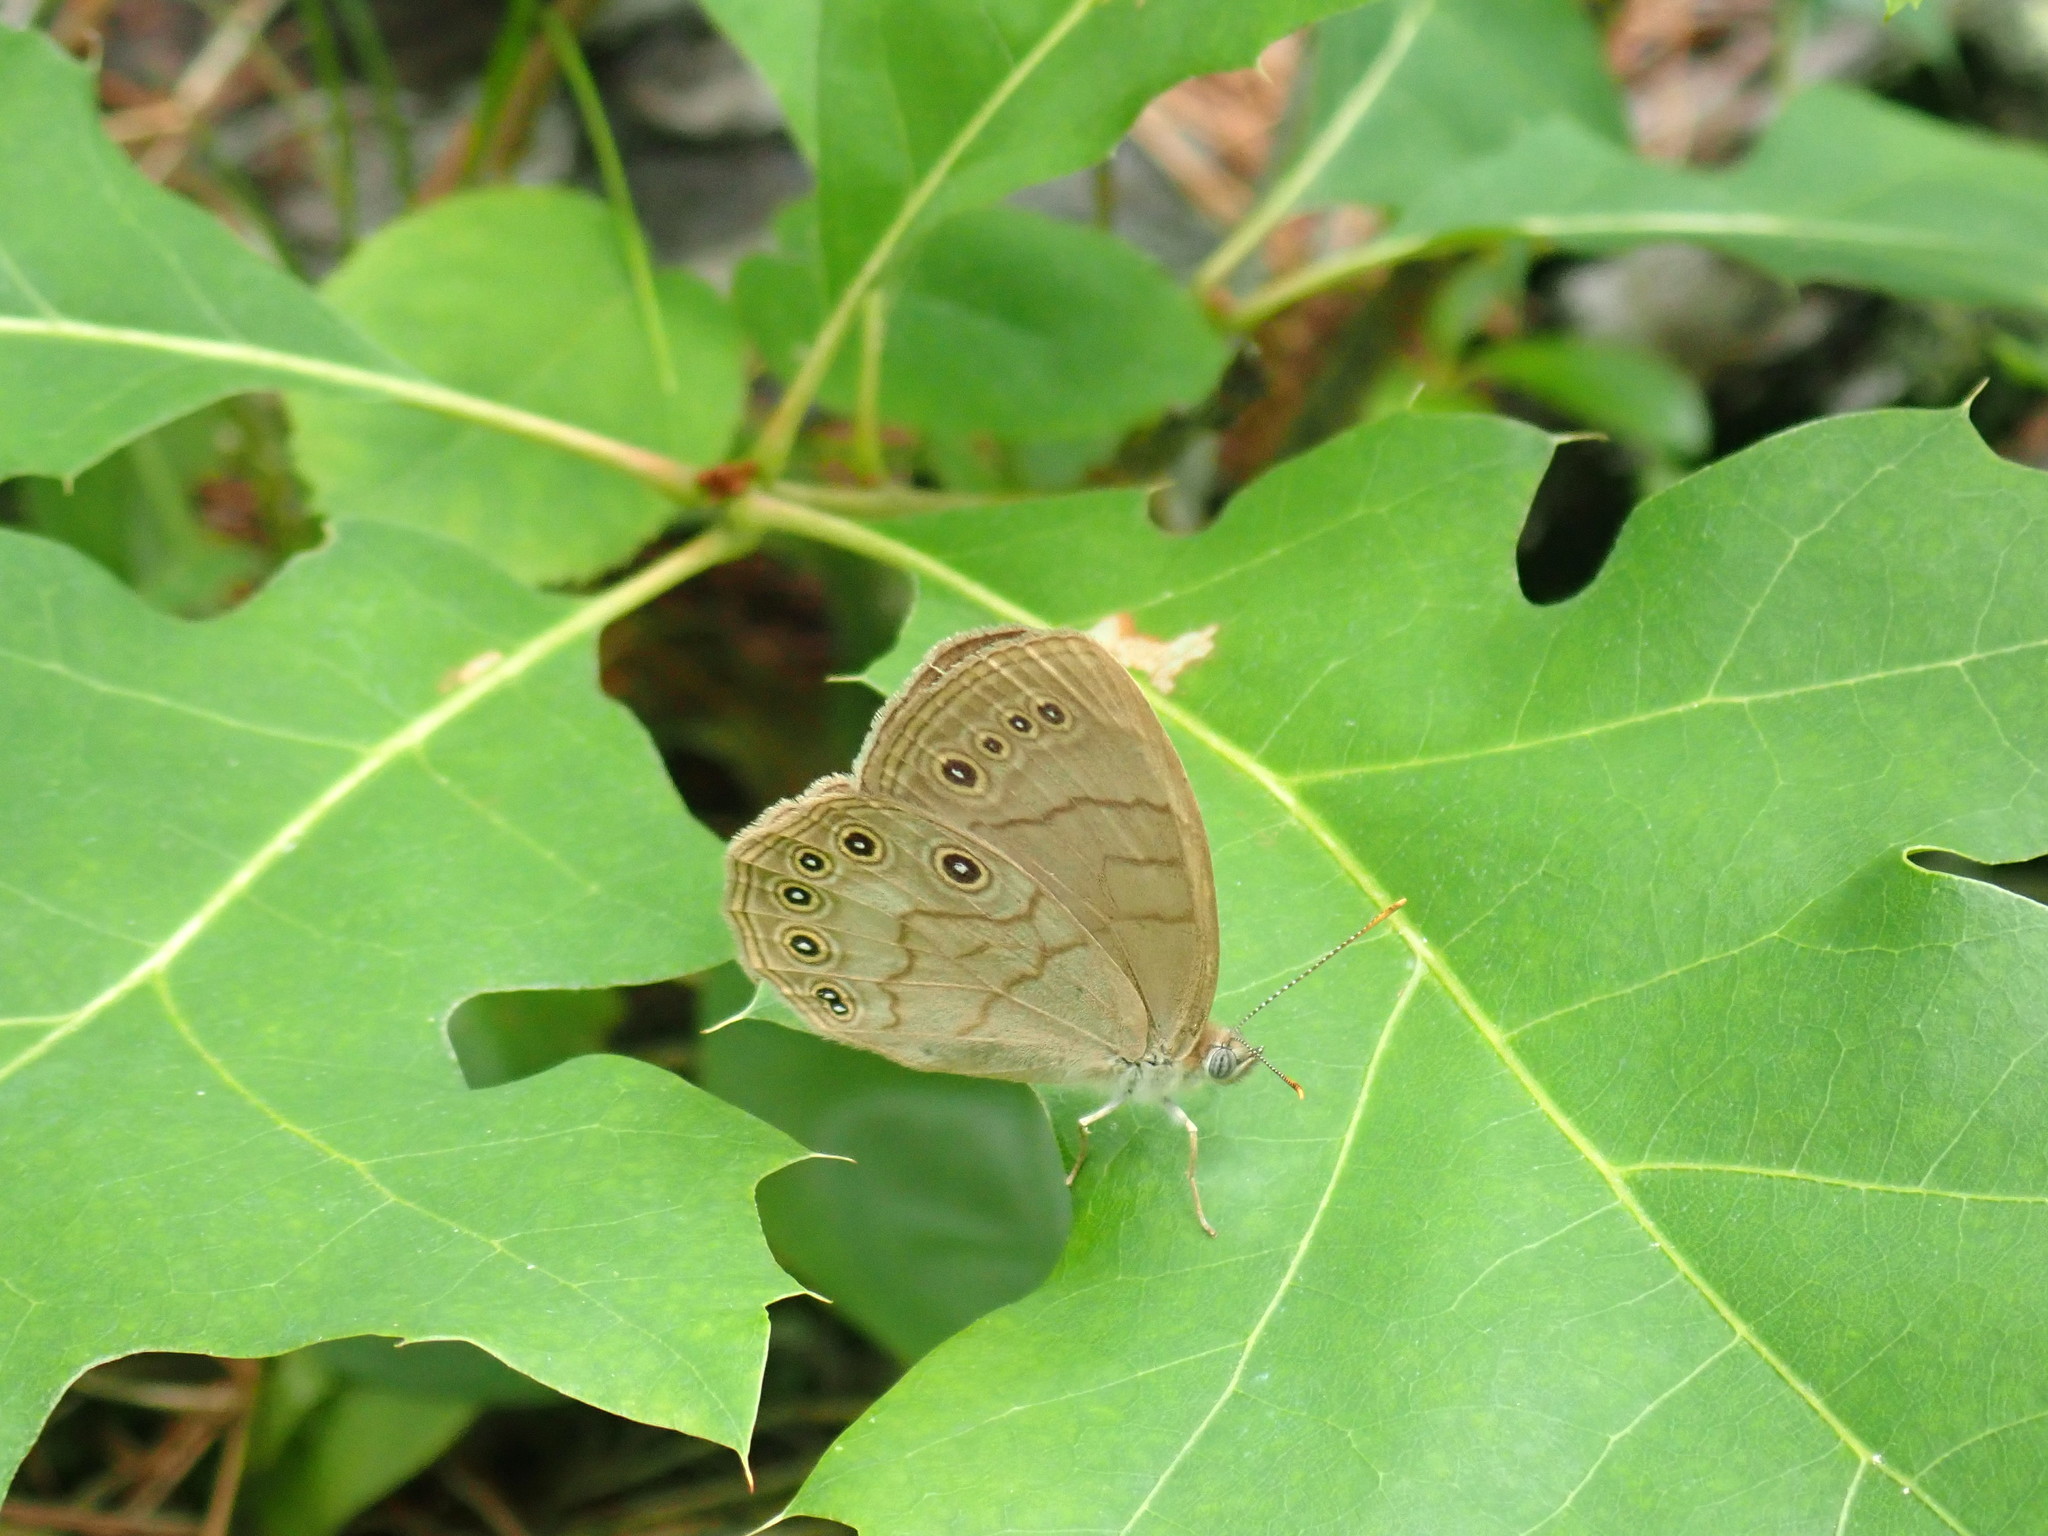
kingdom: Animalia
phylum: Arthropoda
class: Insecta
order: Lepidoptera
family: Nymphalidae
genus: Lethe
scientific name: Lethe eurydice
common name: Eyed brown
